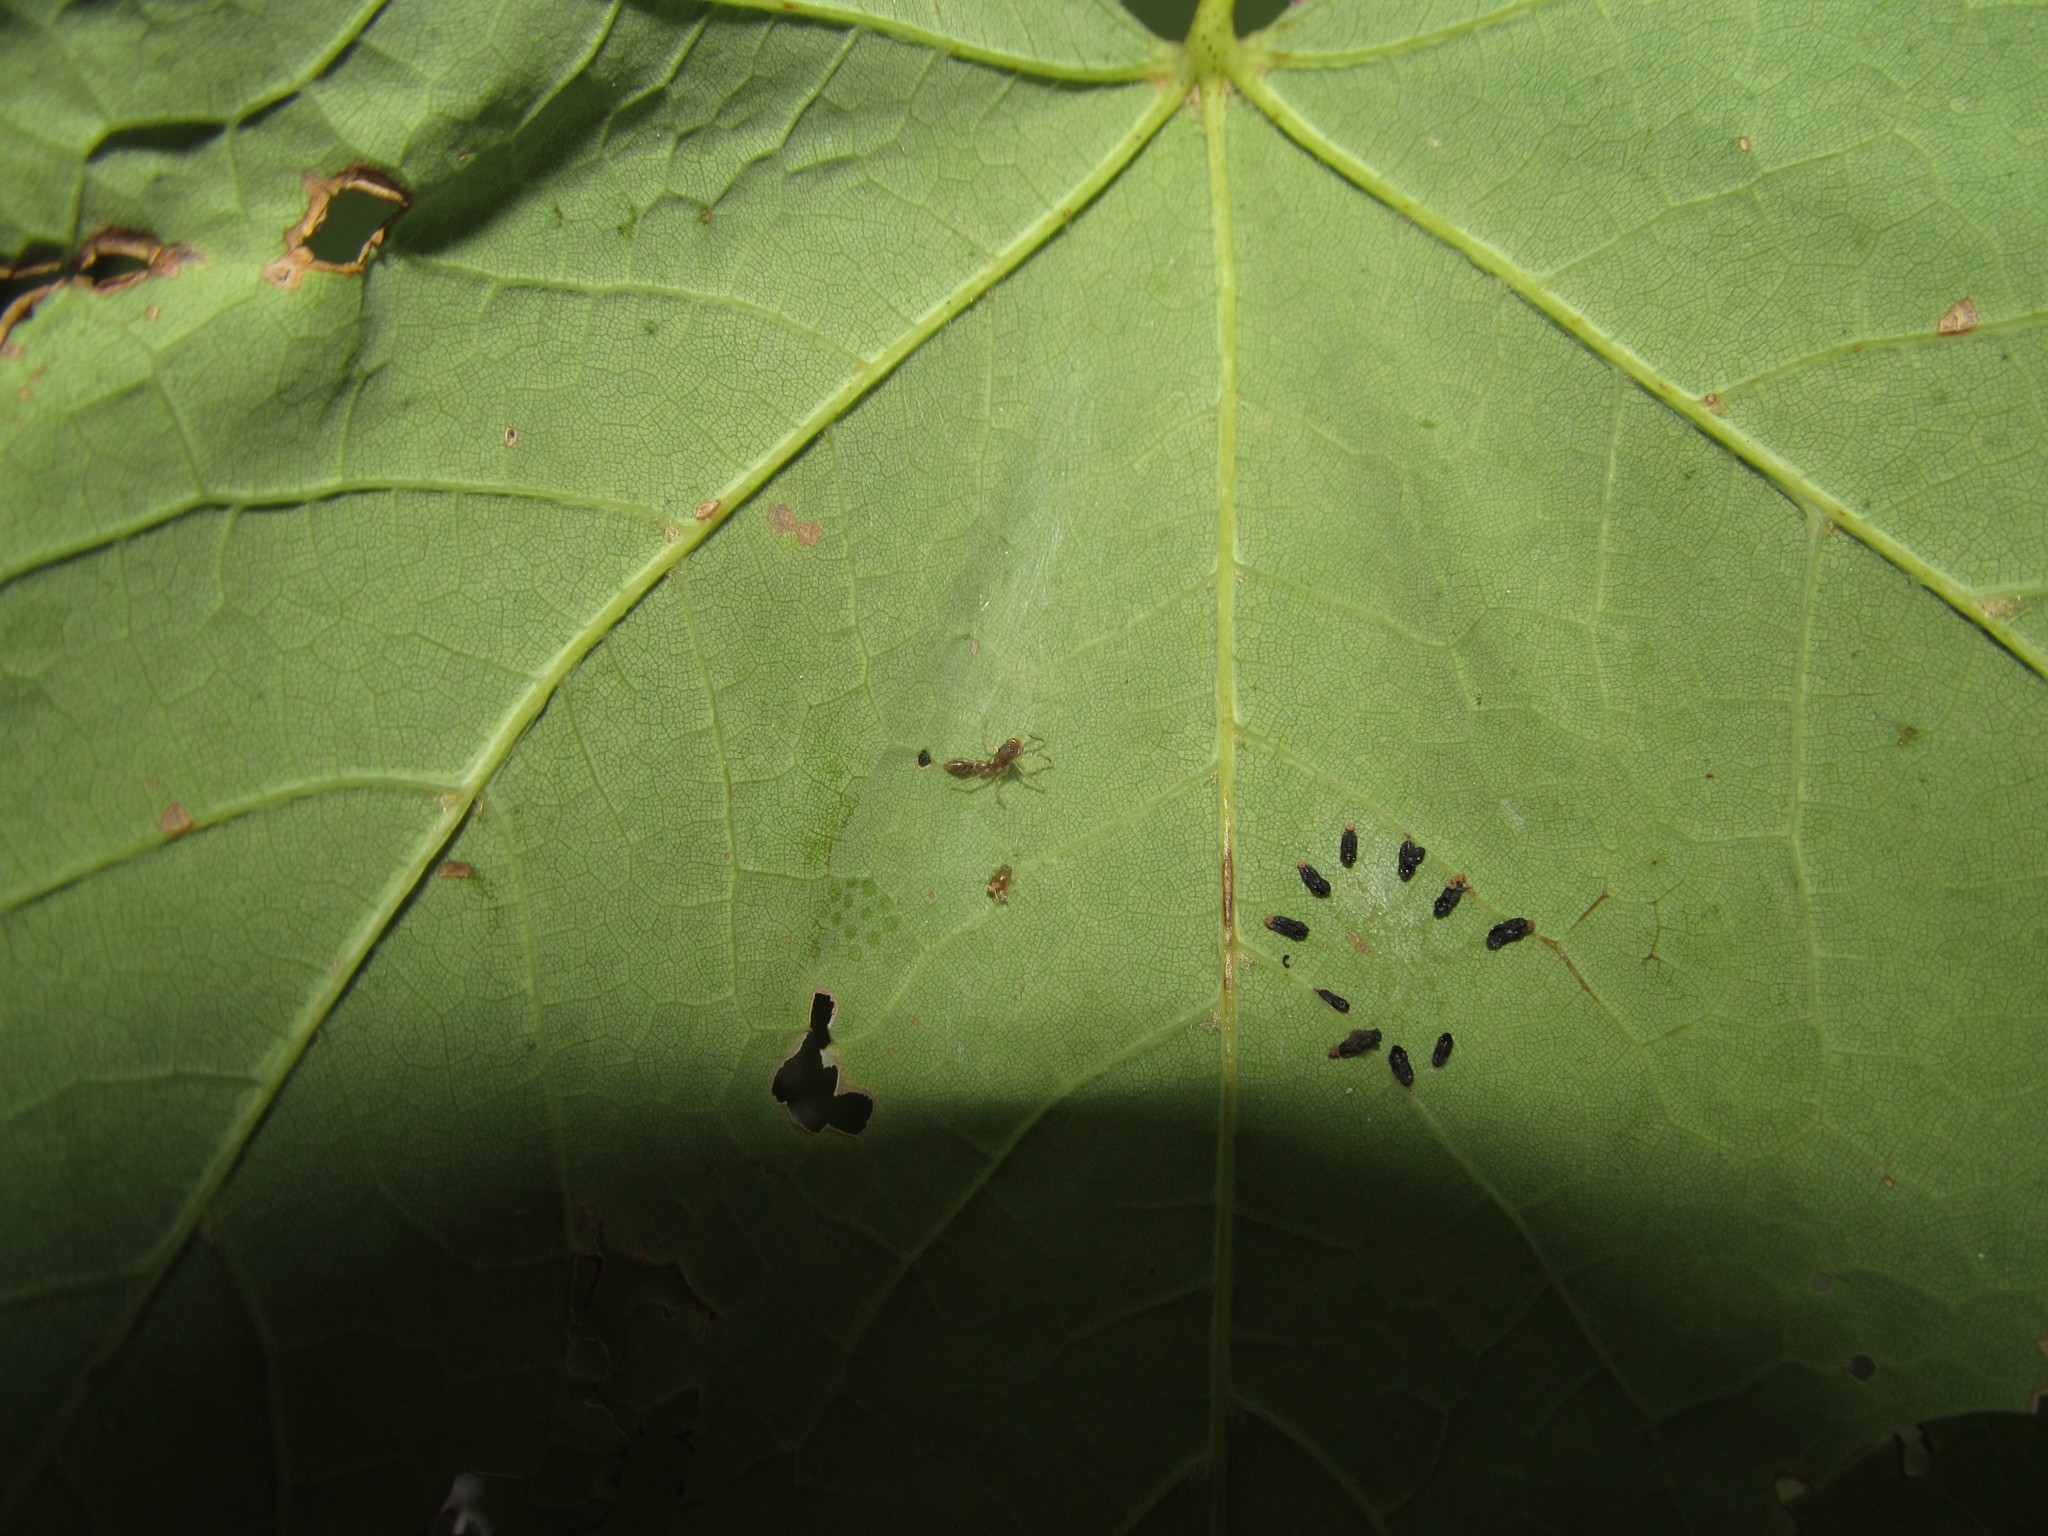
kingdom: Animalia
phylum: Arthropoda
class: Arachnida
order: Araneae
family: Salticidae
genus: Synemosyna
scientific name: Synemosyna formica
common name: Slender ant-mimic jumping spider
